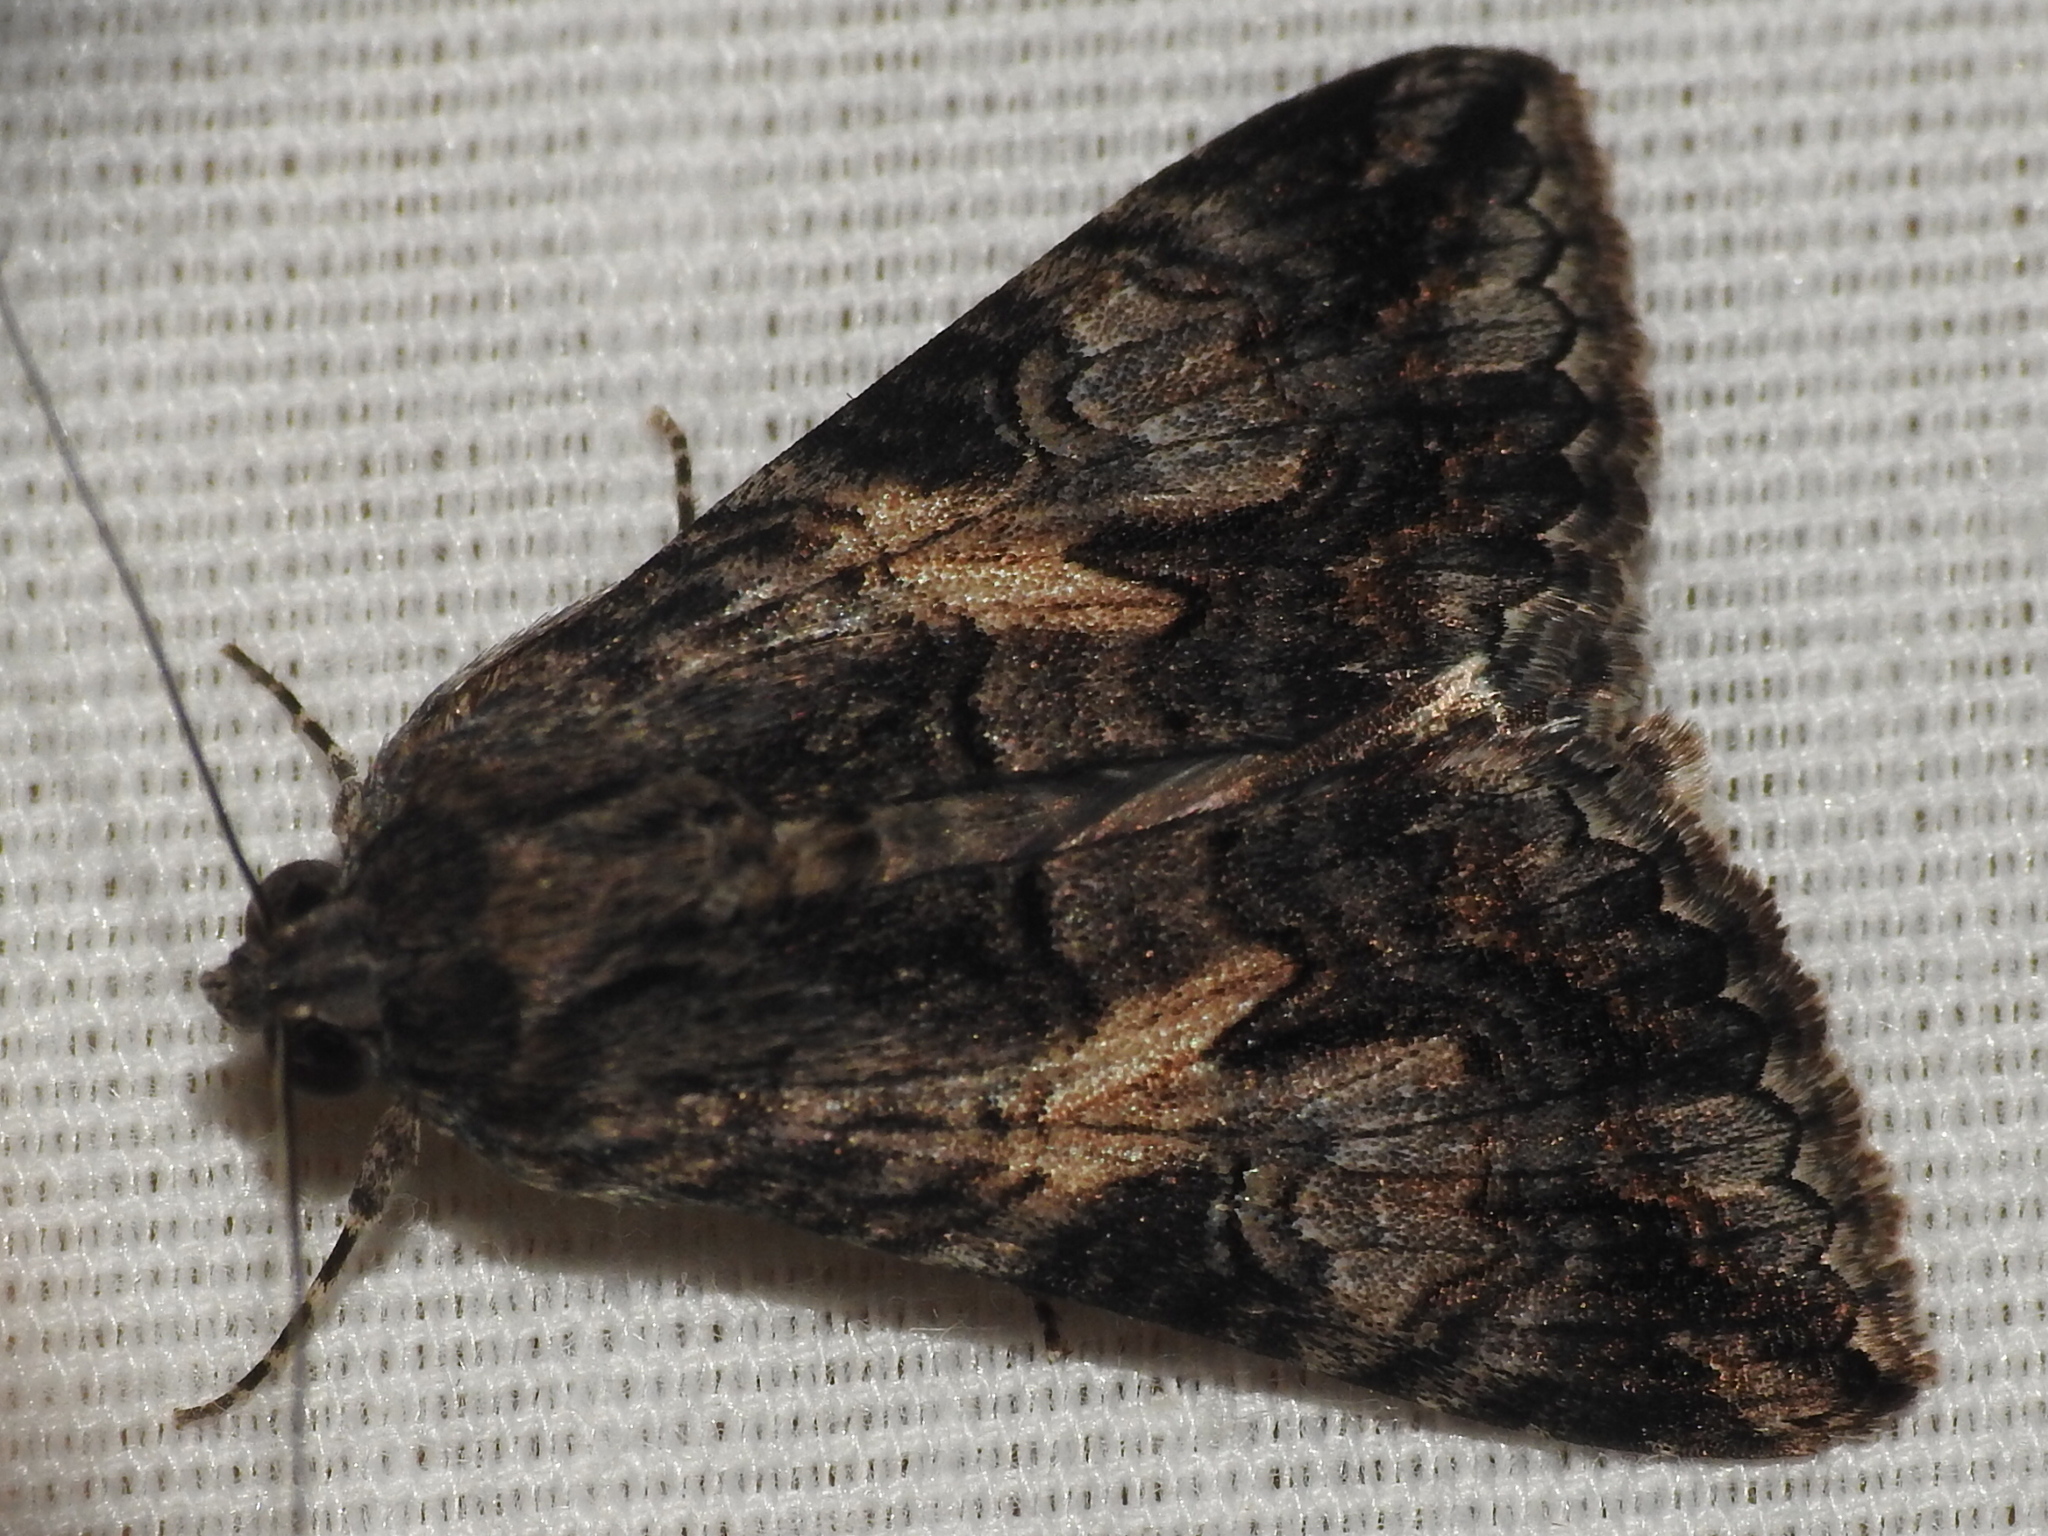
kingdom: Animalia
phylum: Arthropoda
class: Insecta
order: Lepidoptera
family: Erebidae
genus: Melipotis
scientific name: Melipotis jucunda
